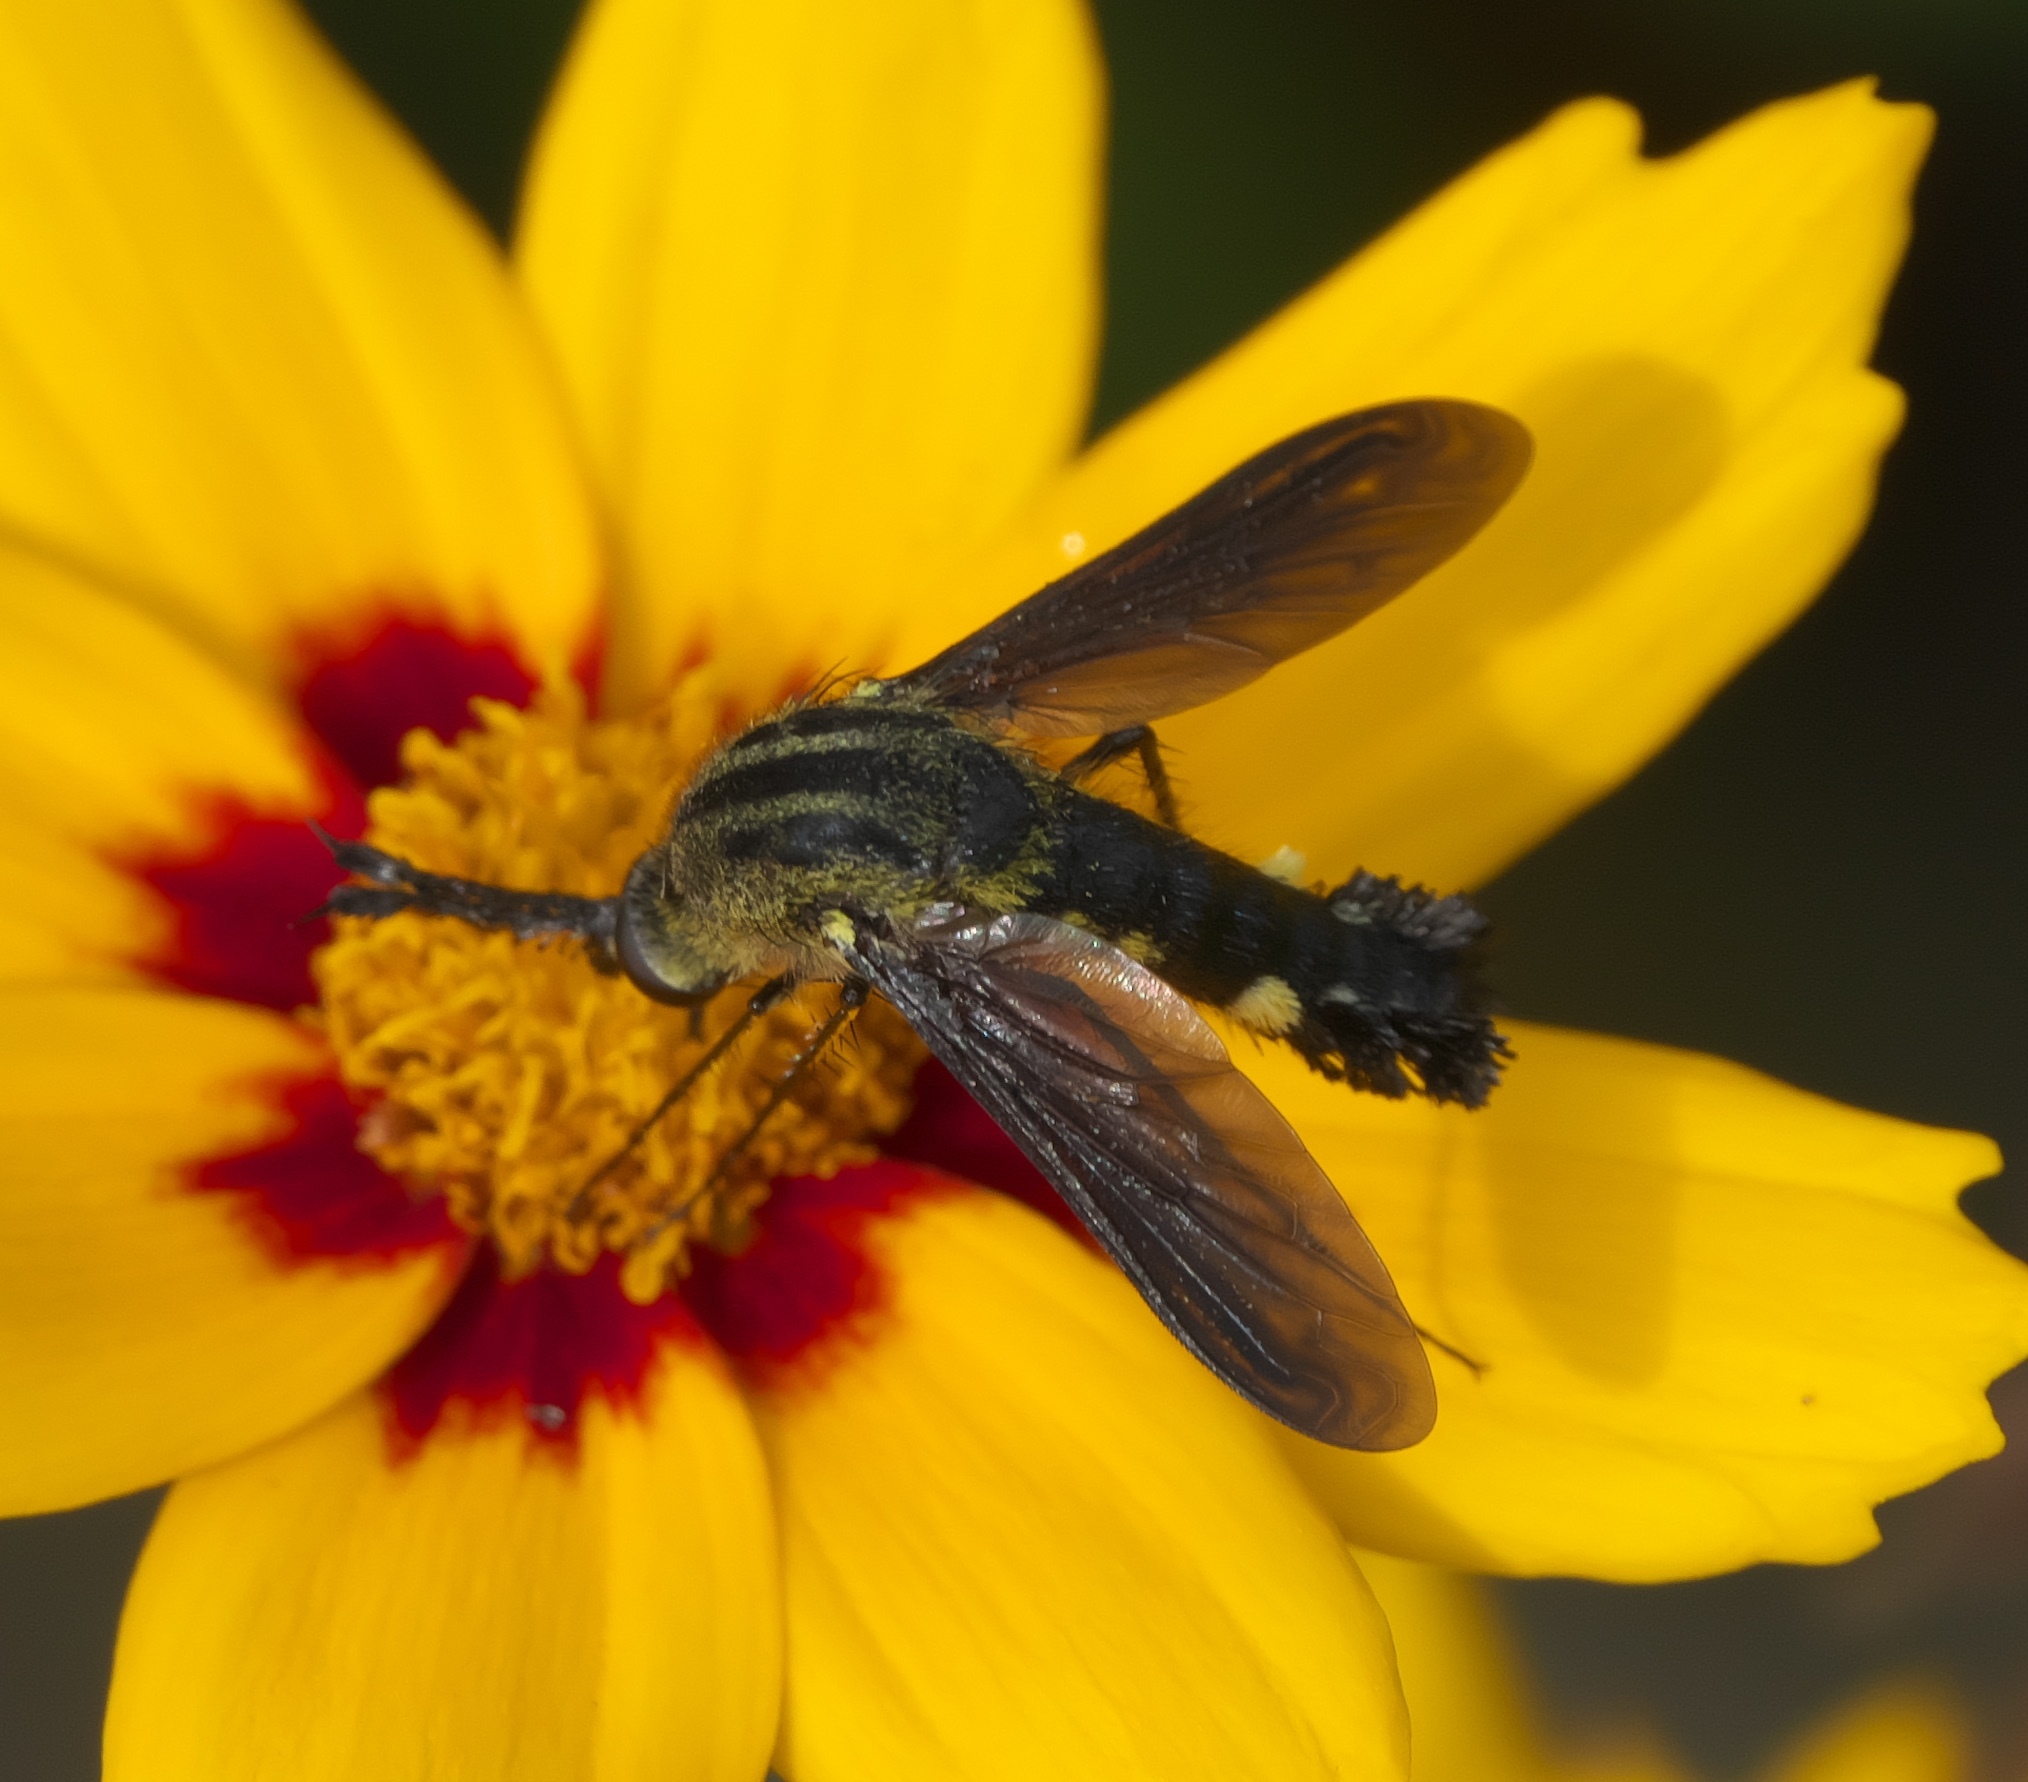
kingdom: Animalia
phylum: Arthropoda
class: Insecta
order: Diptera
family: Bombyliidae
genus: Lepidophora
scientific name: Lepidophora lepidocera
